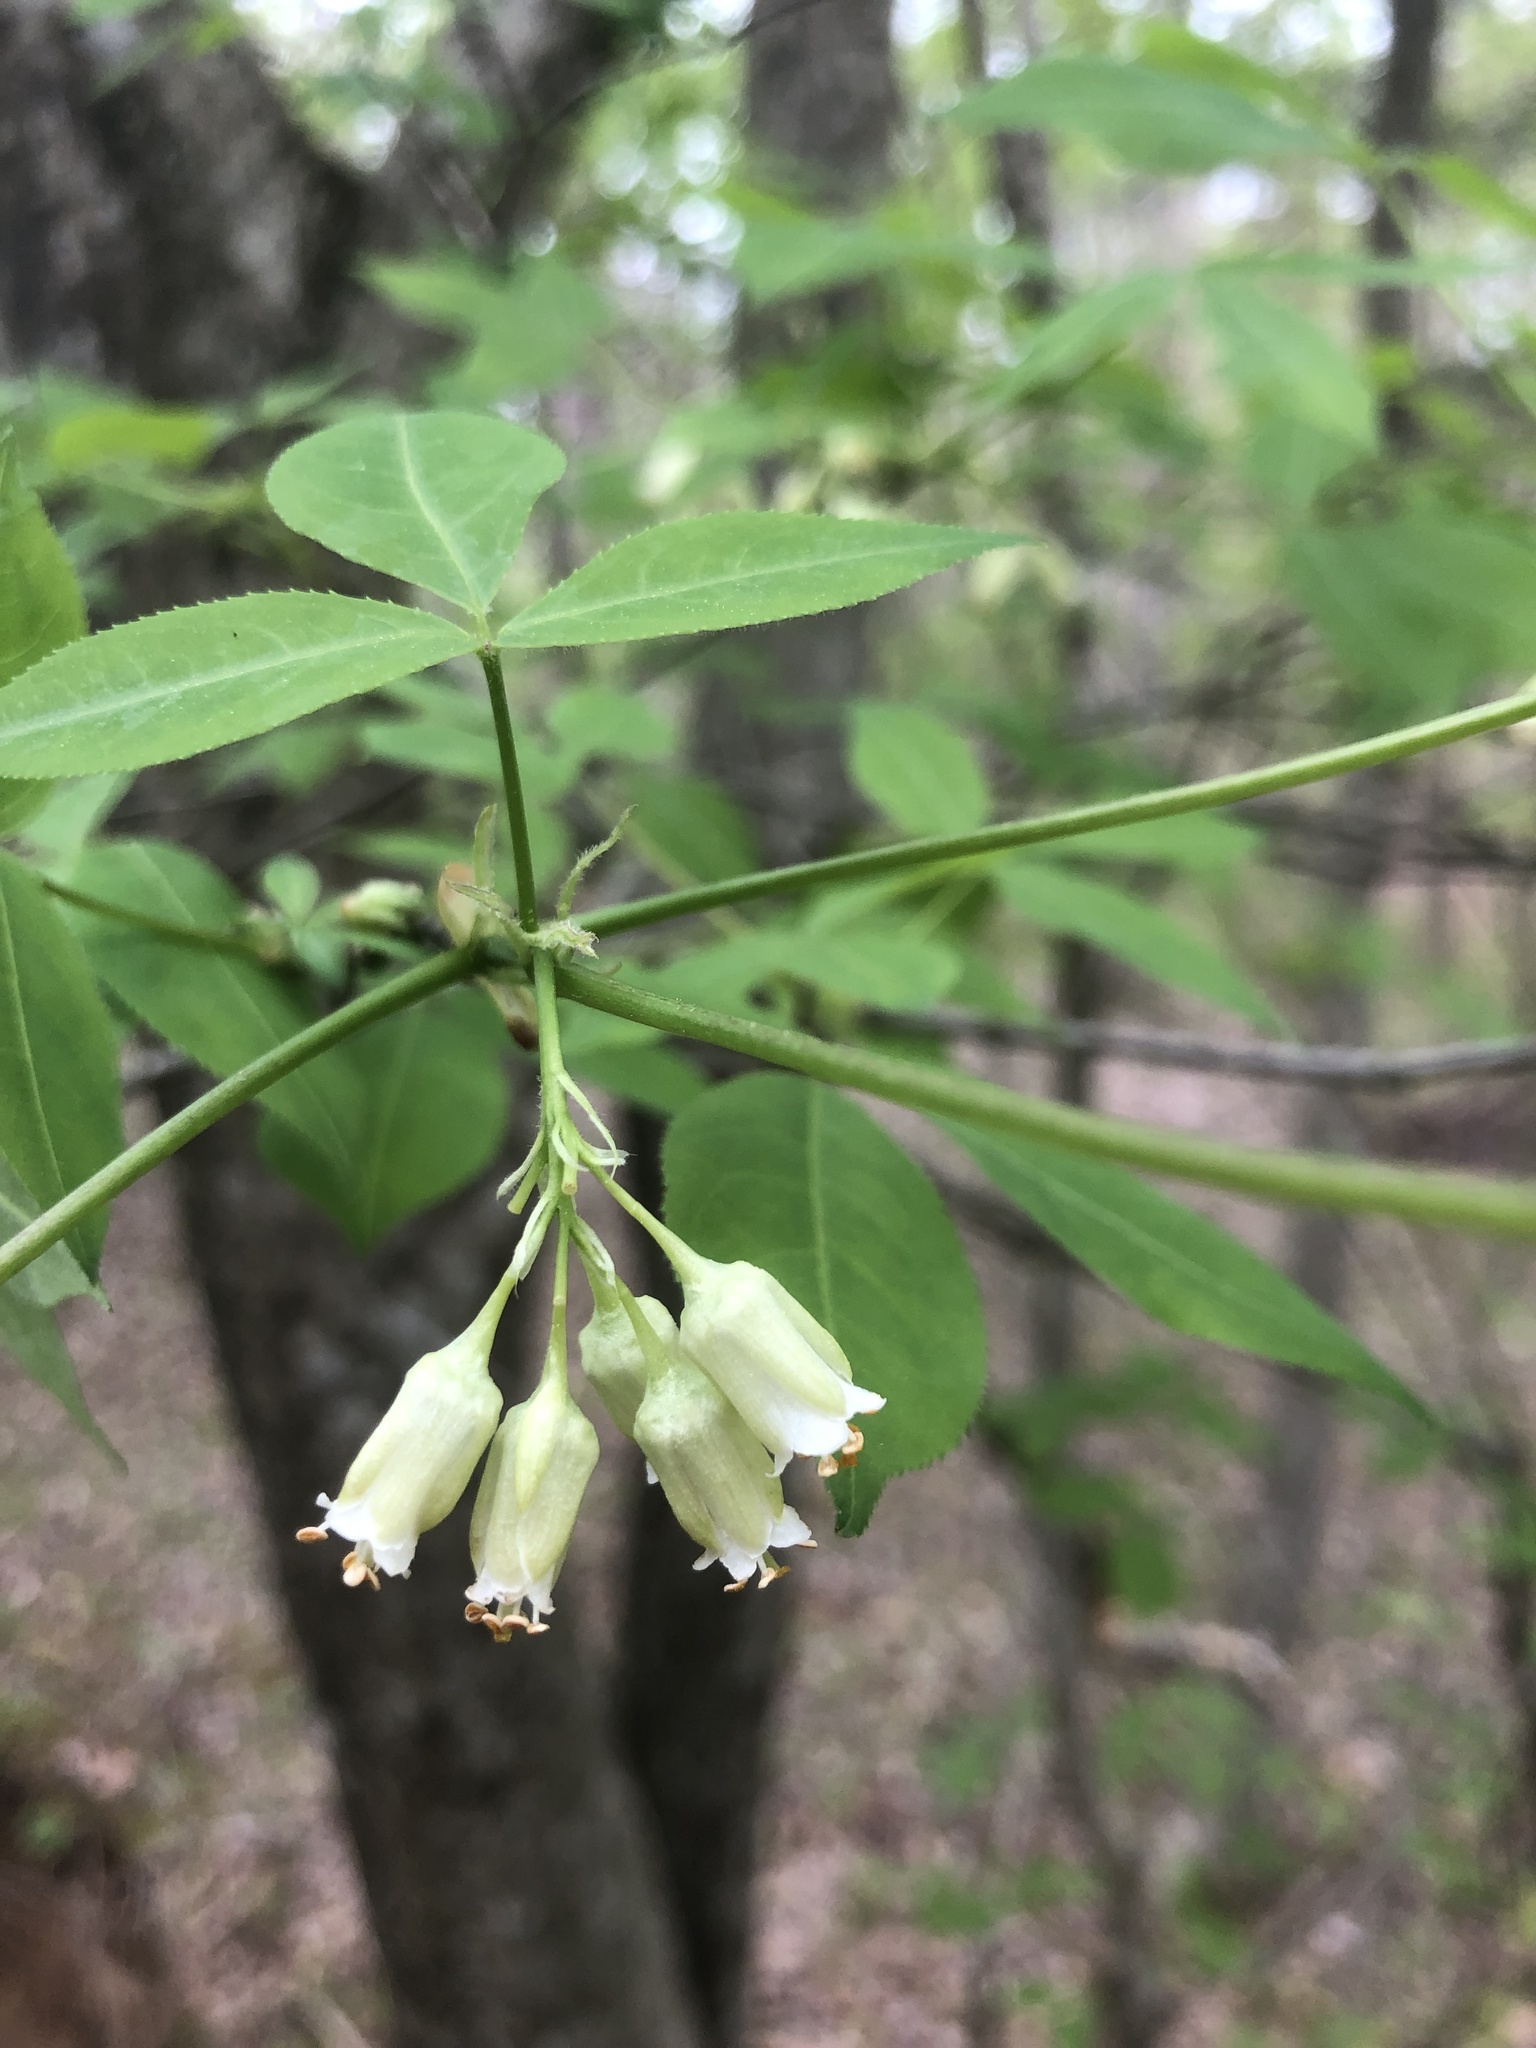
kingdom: Plantae
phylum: Tracheophyta
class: Magnoliopsida
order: Crossosomatales
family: Staphyleaceae
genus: Staphylea
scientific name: Staphylea trifolia
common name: American bladdernut
